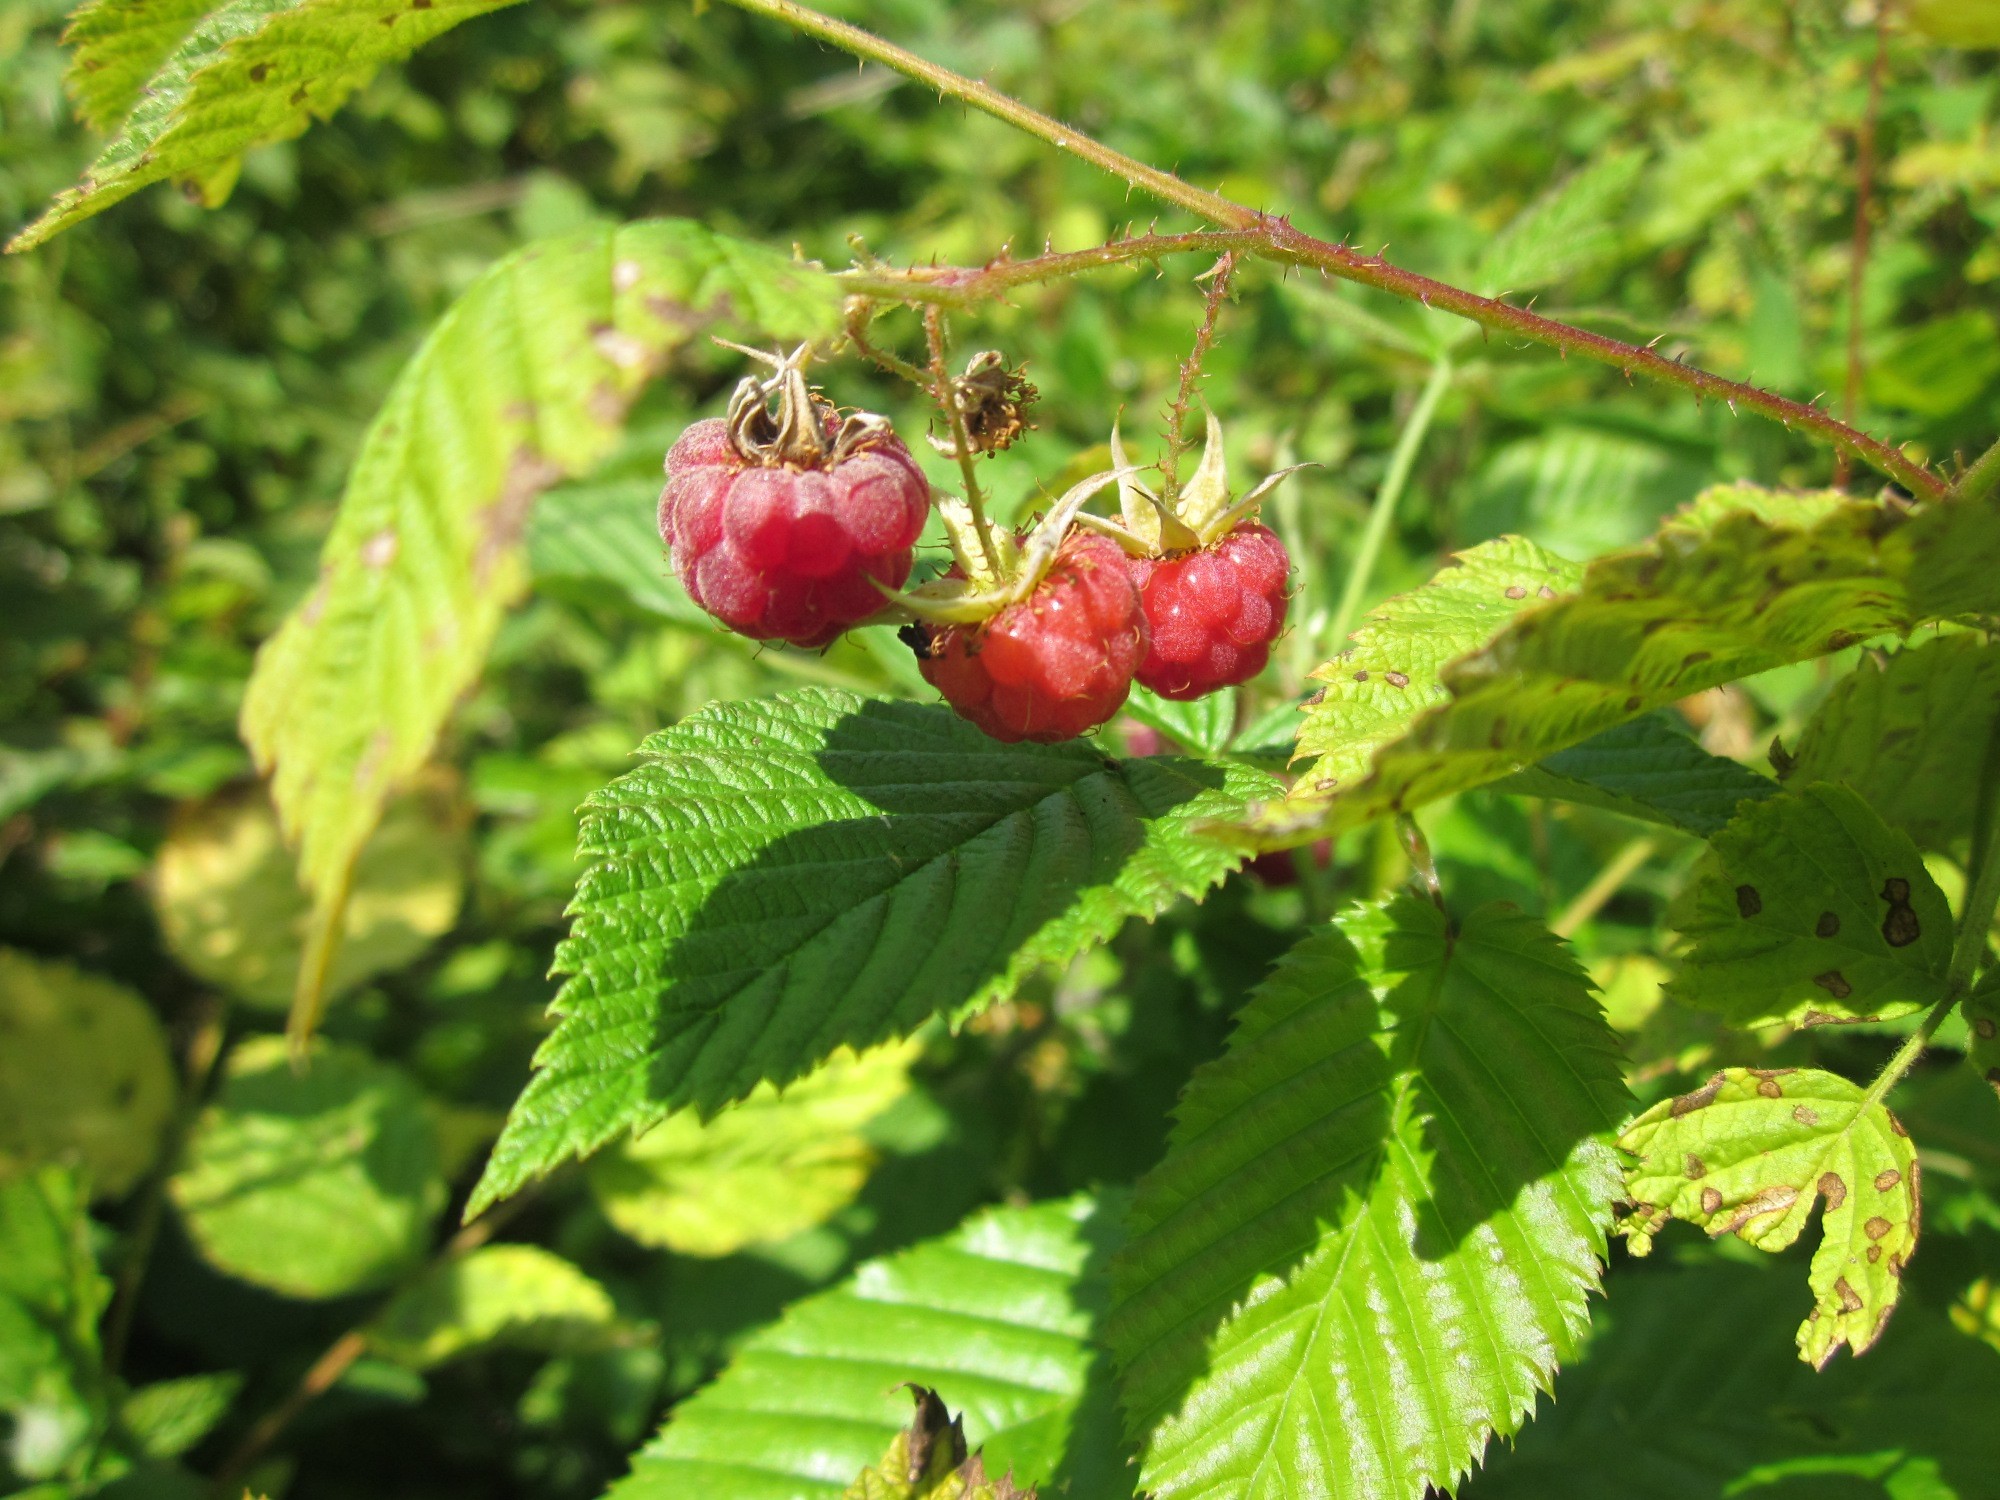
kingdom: Plantae
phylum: Tracheophyta
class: Magnoliopsida
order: Rosales
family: Rosaceae
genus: Rubus
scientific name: Rubus idaeus
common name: Raspberry
